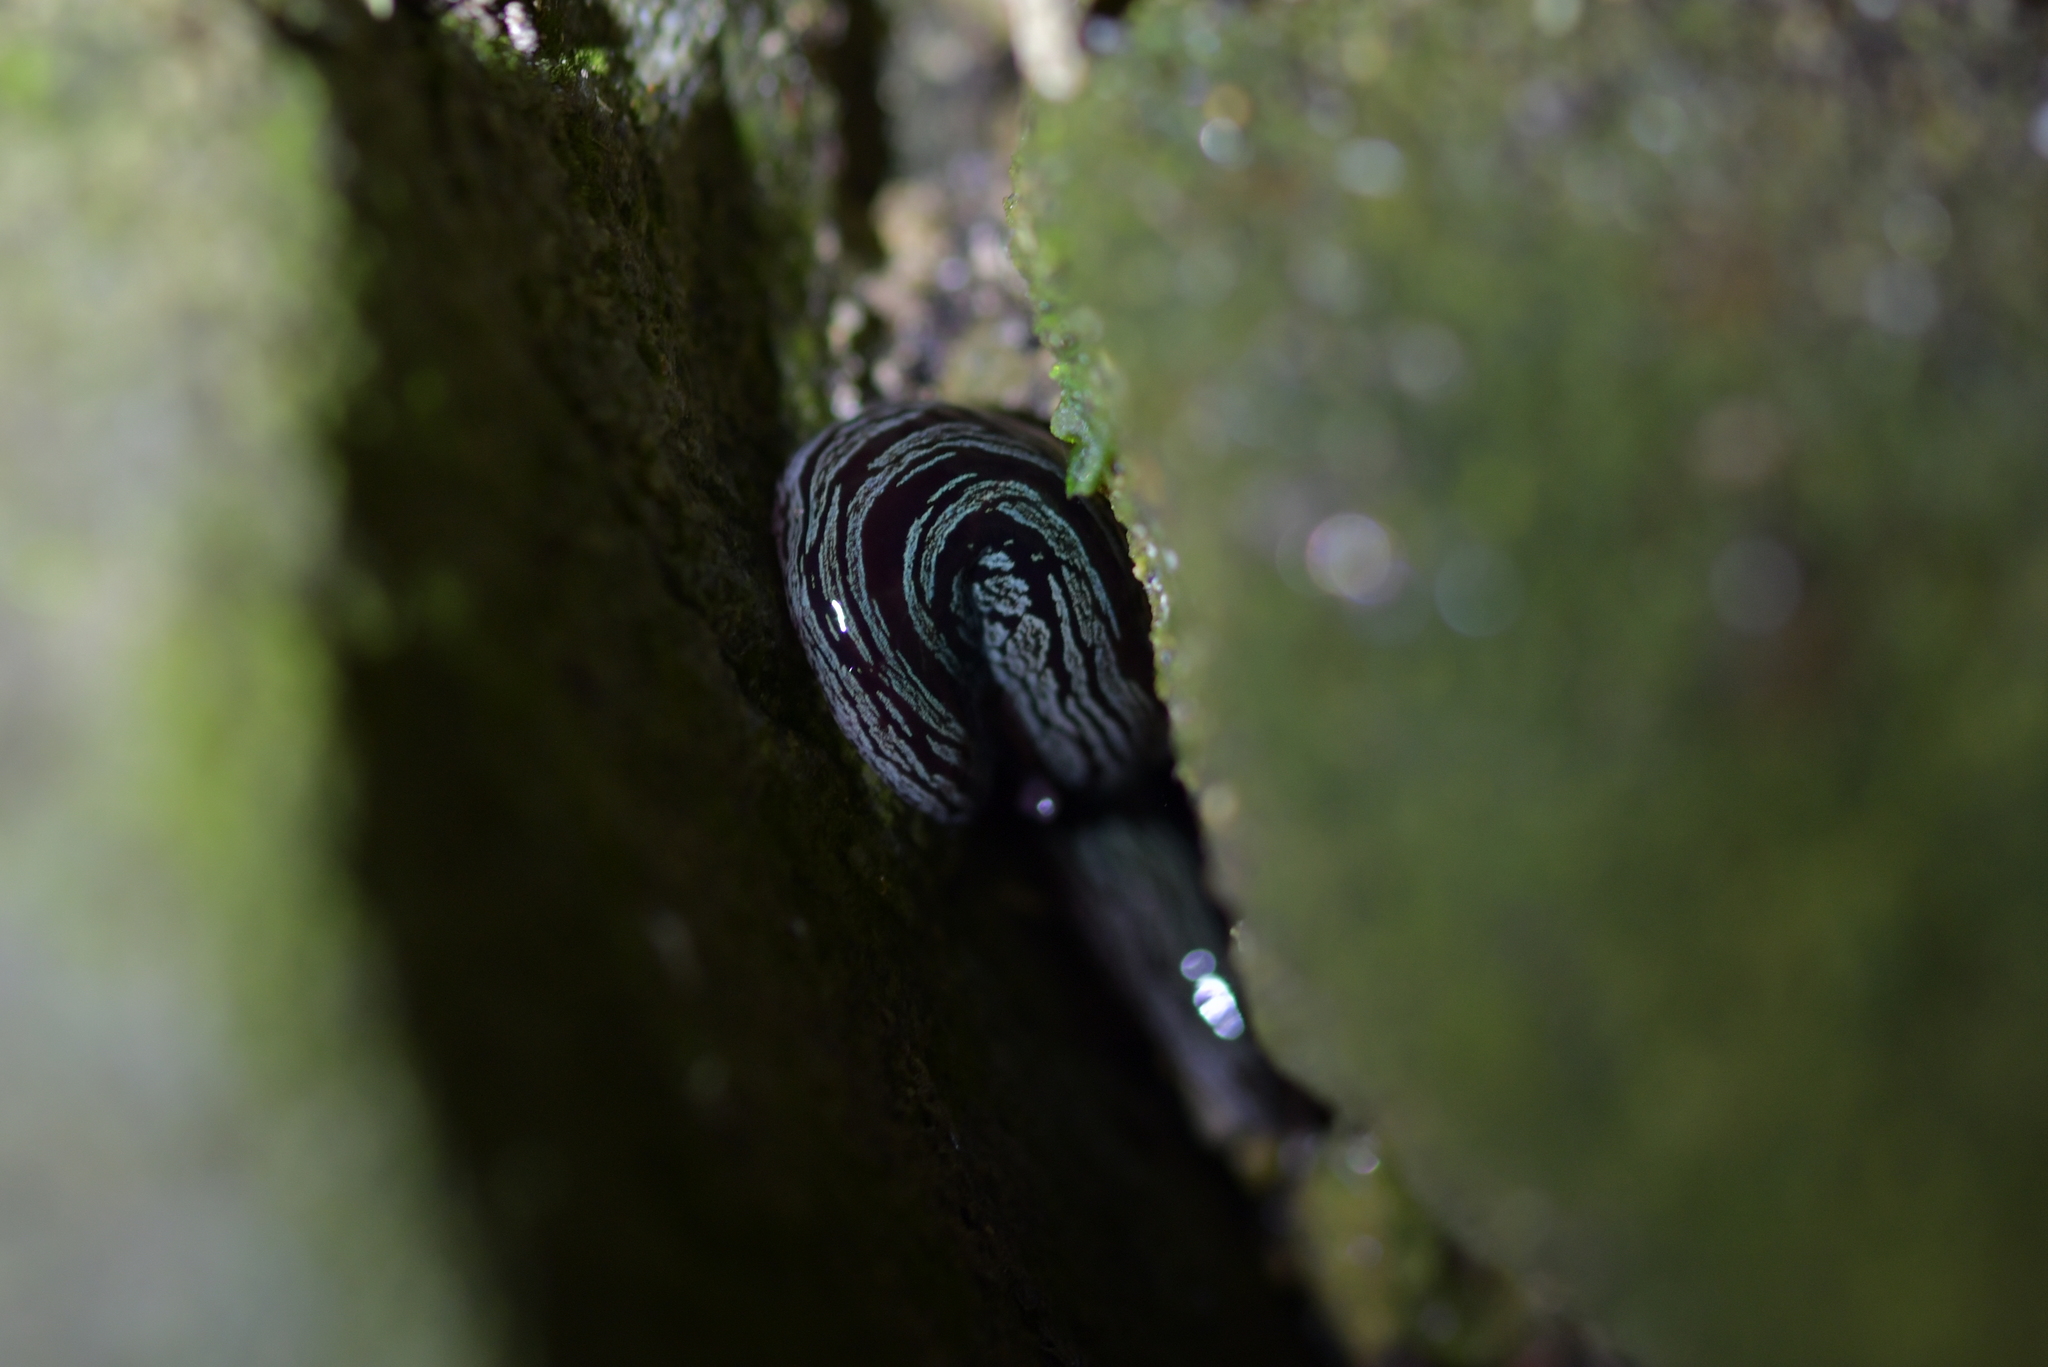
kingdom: Animalia
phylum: Platyhelminthes
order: Tricladida
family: Geoplanidae
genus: Artioposthia
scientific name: Artioposthia exulans
